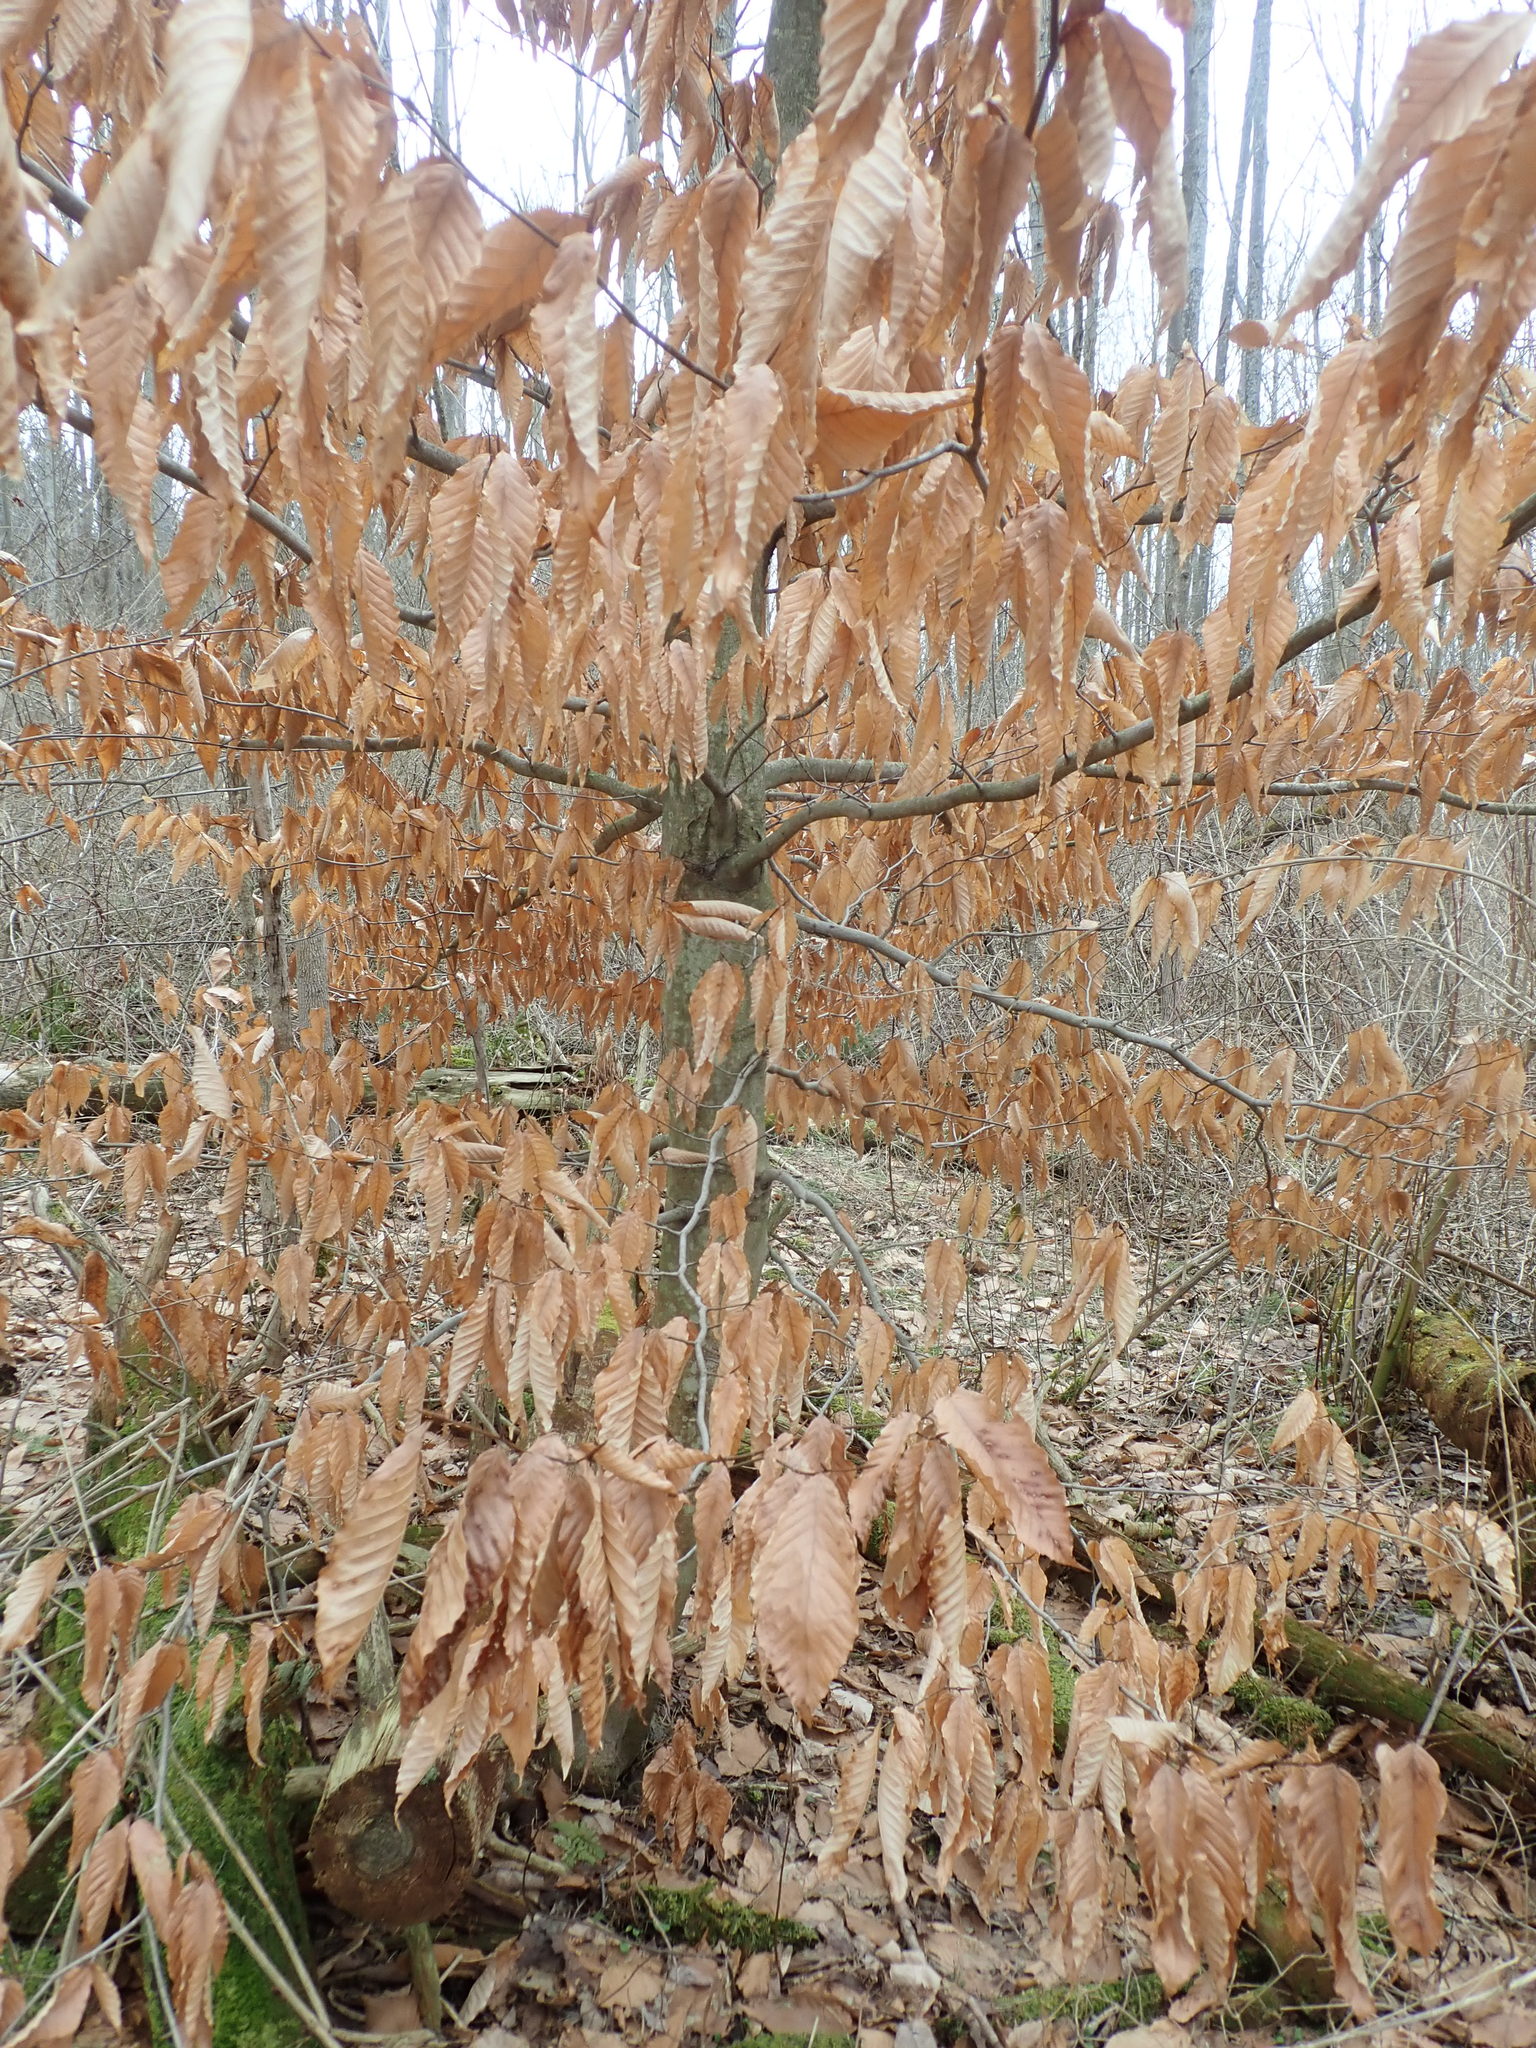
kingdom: Plantae
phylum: Tracheophyta
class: Magnoliopsida
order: Fagales
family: Fagaceae
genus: Fagus
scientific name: Fagus grandifolia
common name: American beech
